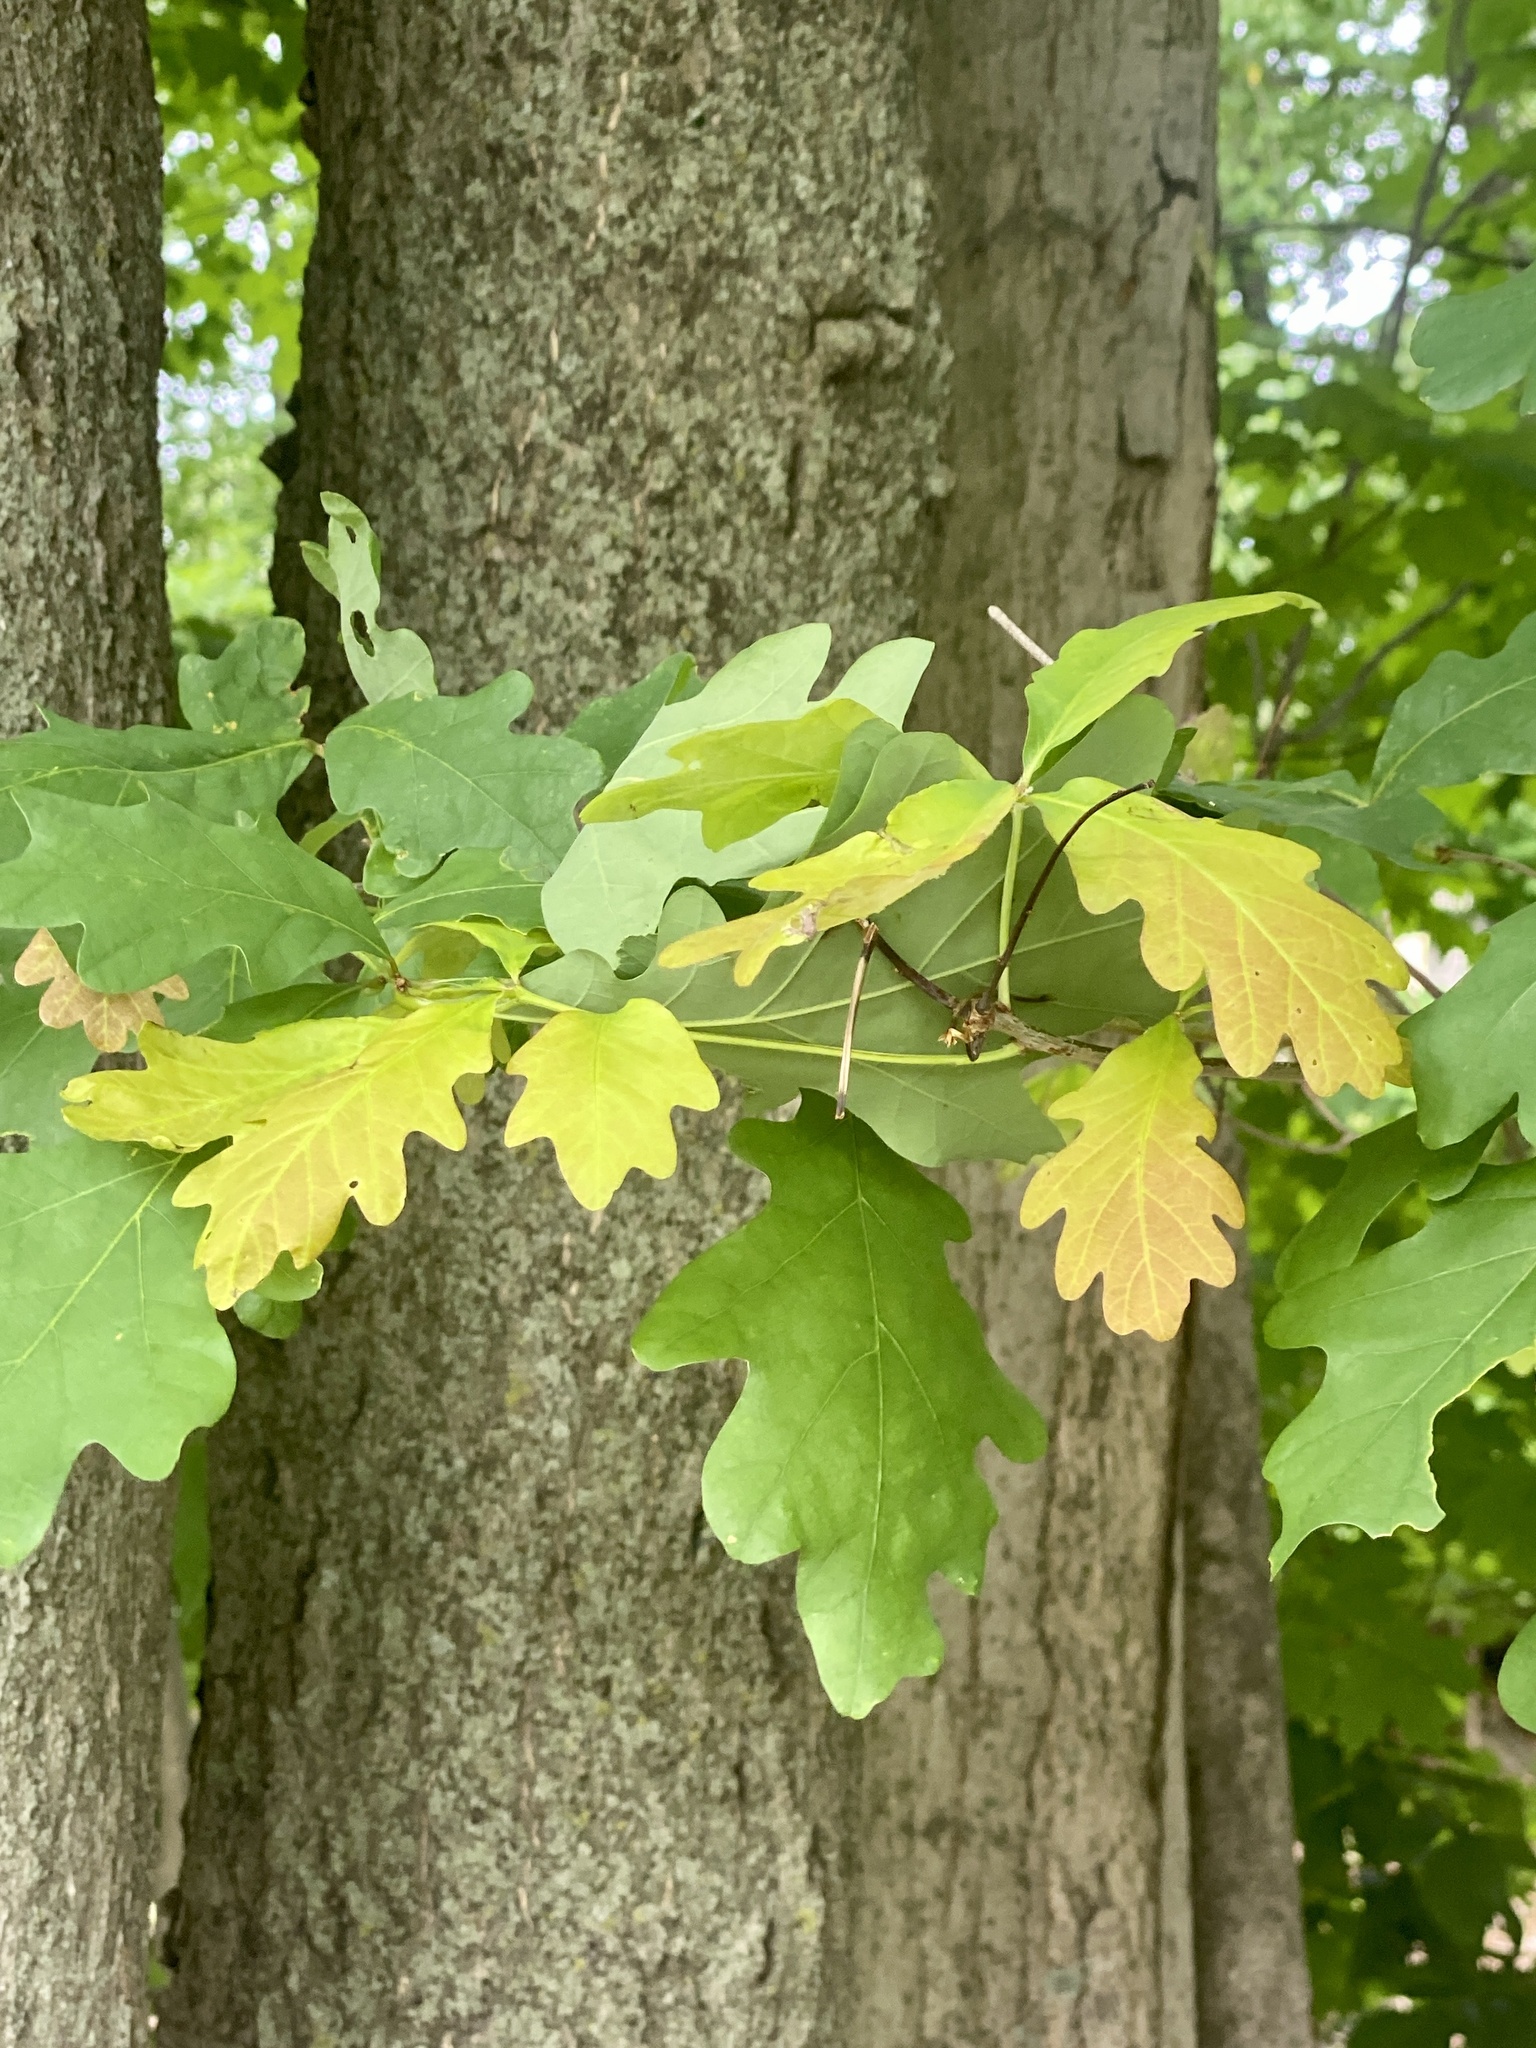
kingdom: Plantae
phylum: Tracheophyta
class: Magnoliopsida
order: Fagales
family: Fagaceae
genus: Quercus
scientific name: Quercus alba
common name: White oak
